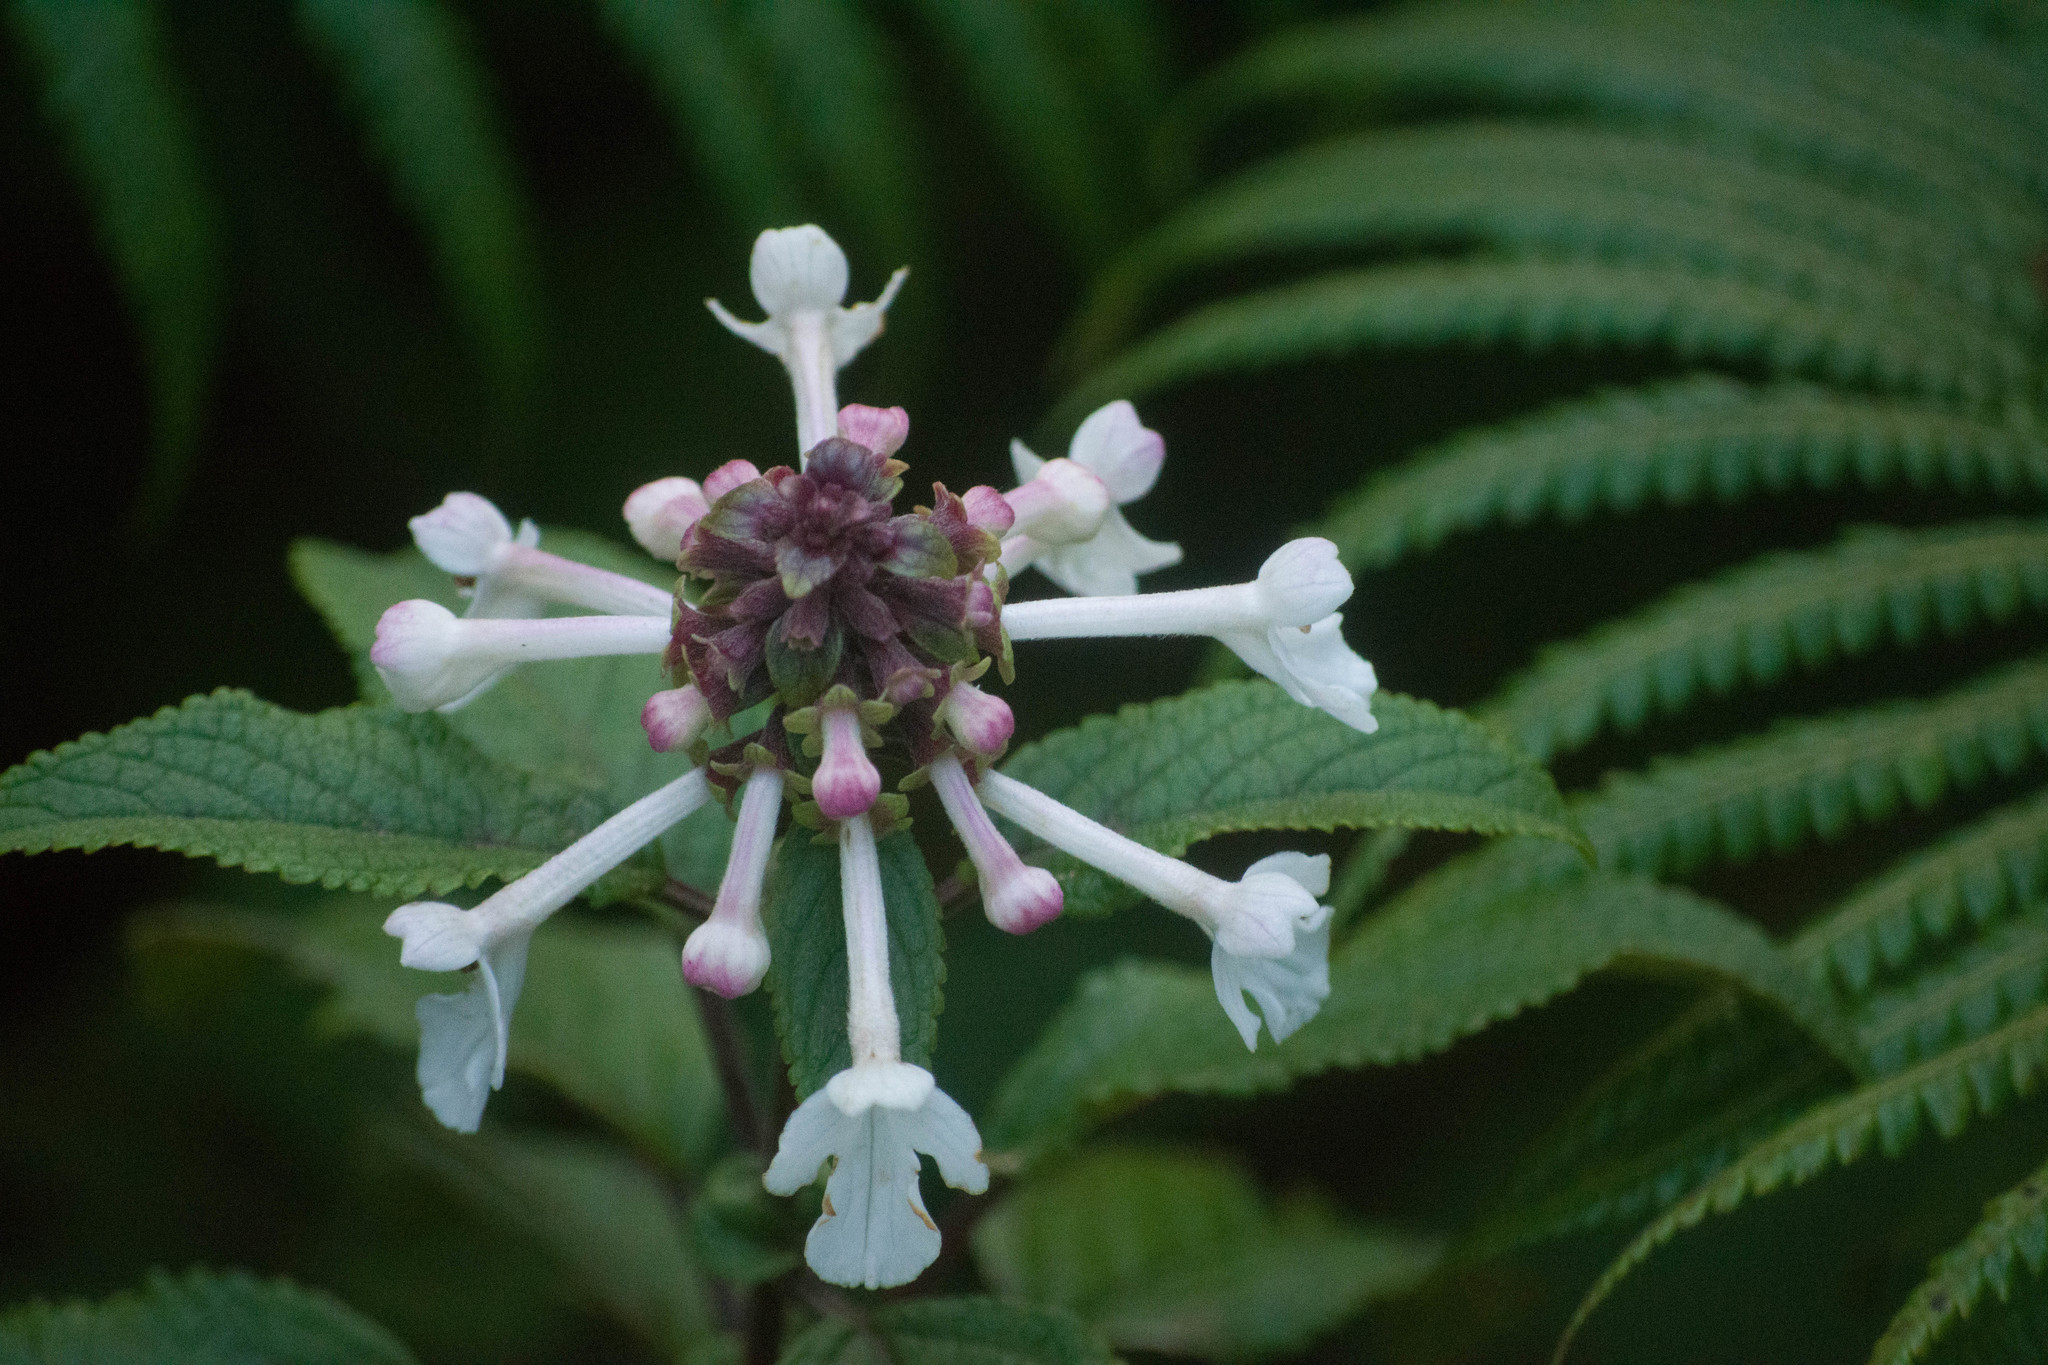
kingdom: Plantae
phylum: Tracheophyta
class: Magnoliopsida
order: Lamiales
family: Lamiaceae
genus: Phyllostegia
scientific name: Phyllostegia grandiflora
